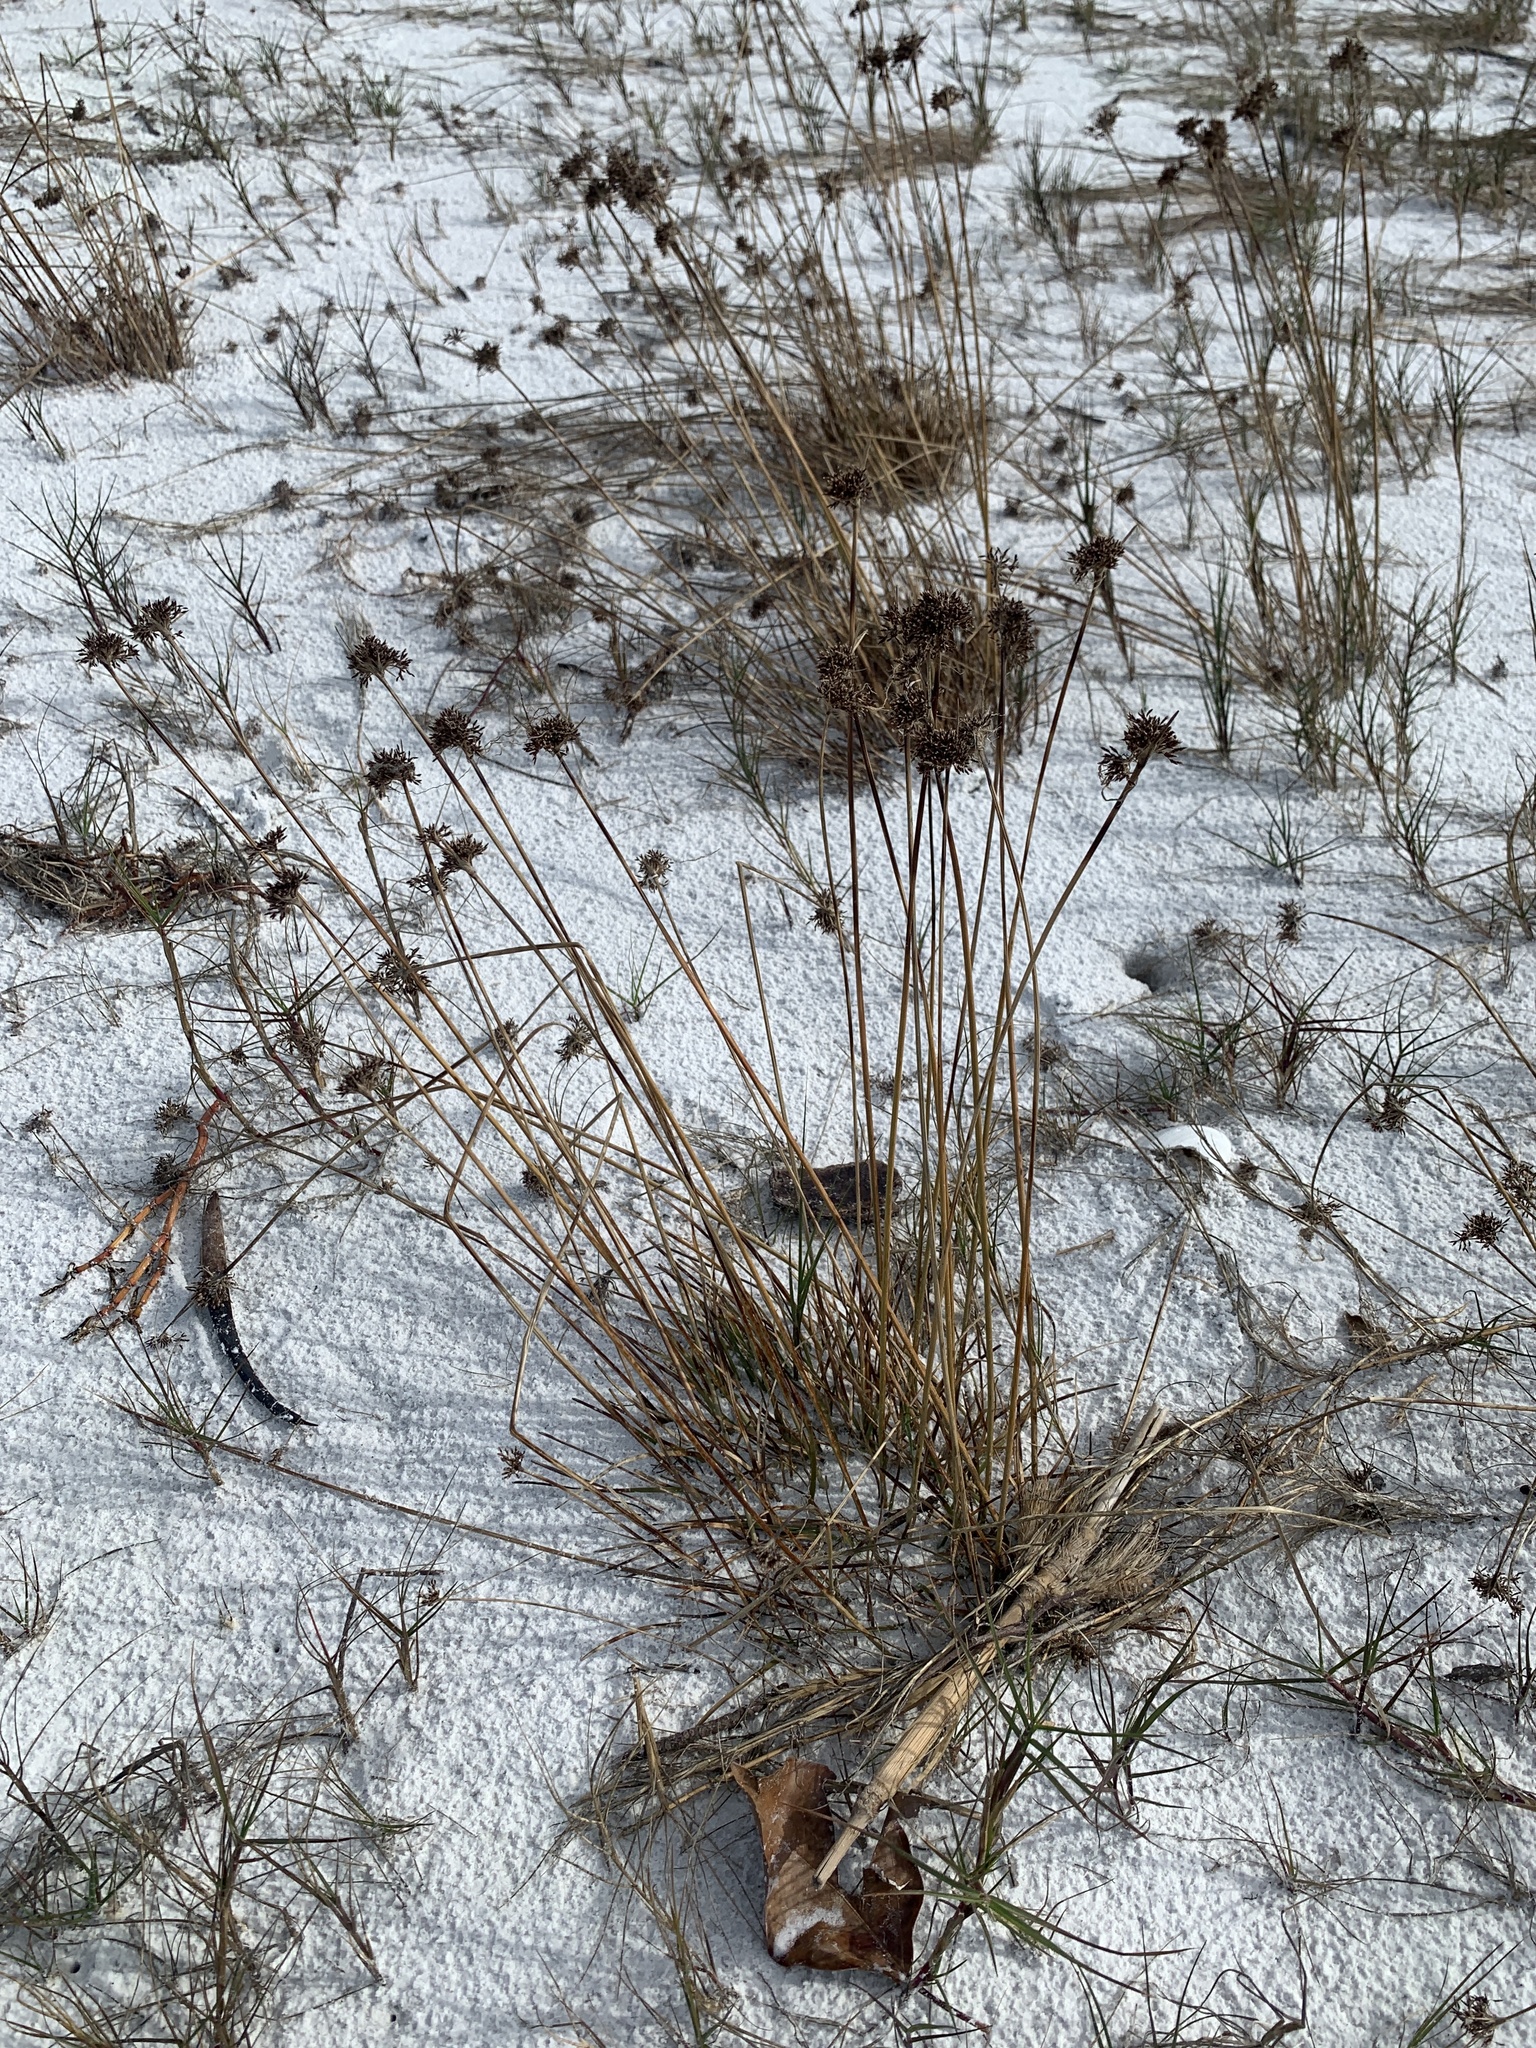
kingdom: Plantae
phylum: Tracheophyta
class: Liliopsida
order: Poales
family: Cyperaceae
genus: Fimbristylis
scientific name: Fimbristylis cymosa
